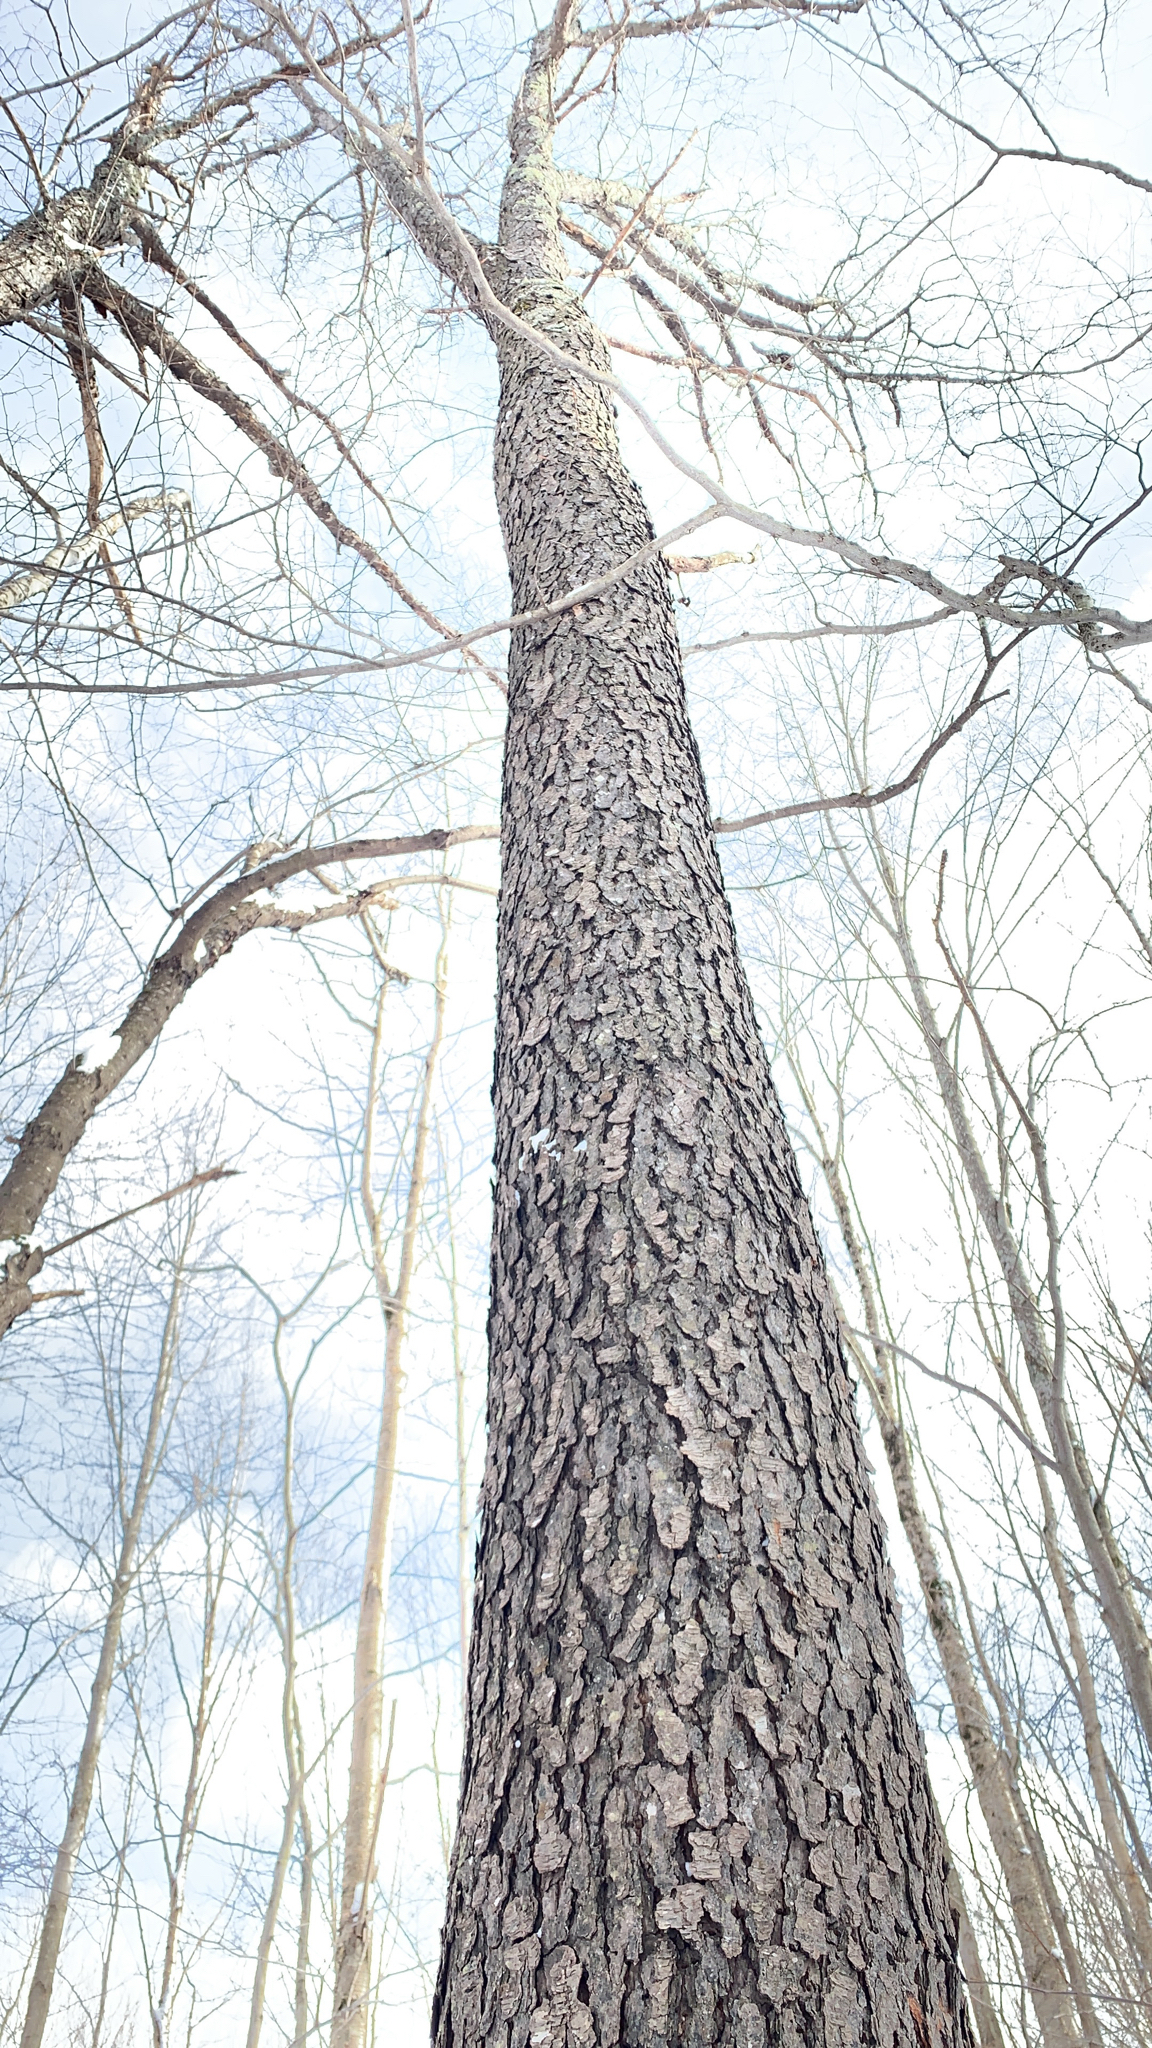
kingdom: Plantae
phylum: Tracheophyta
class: Magnoliopsida
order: Rosales
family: Rosaceae
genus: Prunus
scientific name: Prunus serotina
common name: Black cherry
